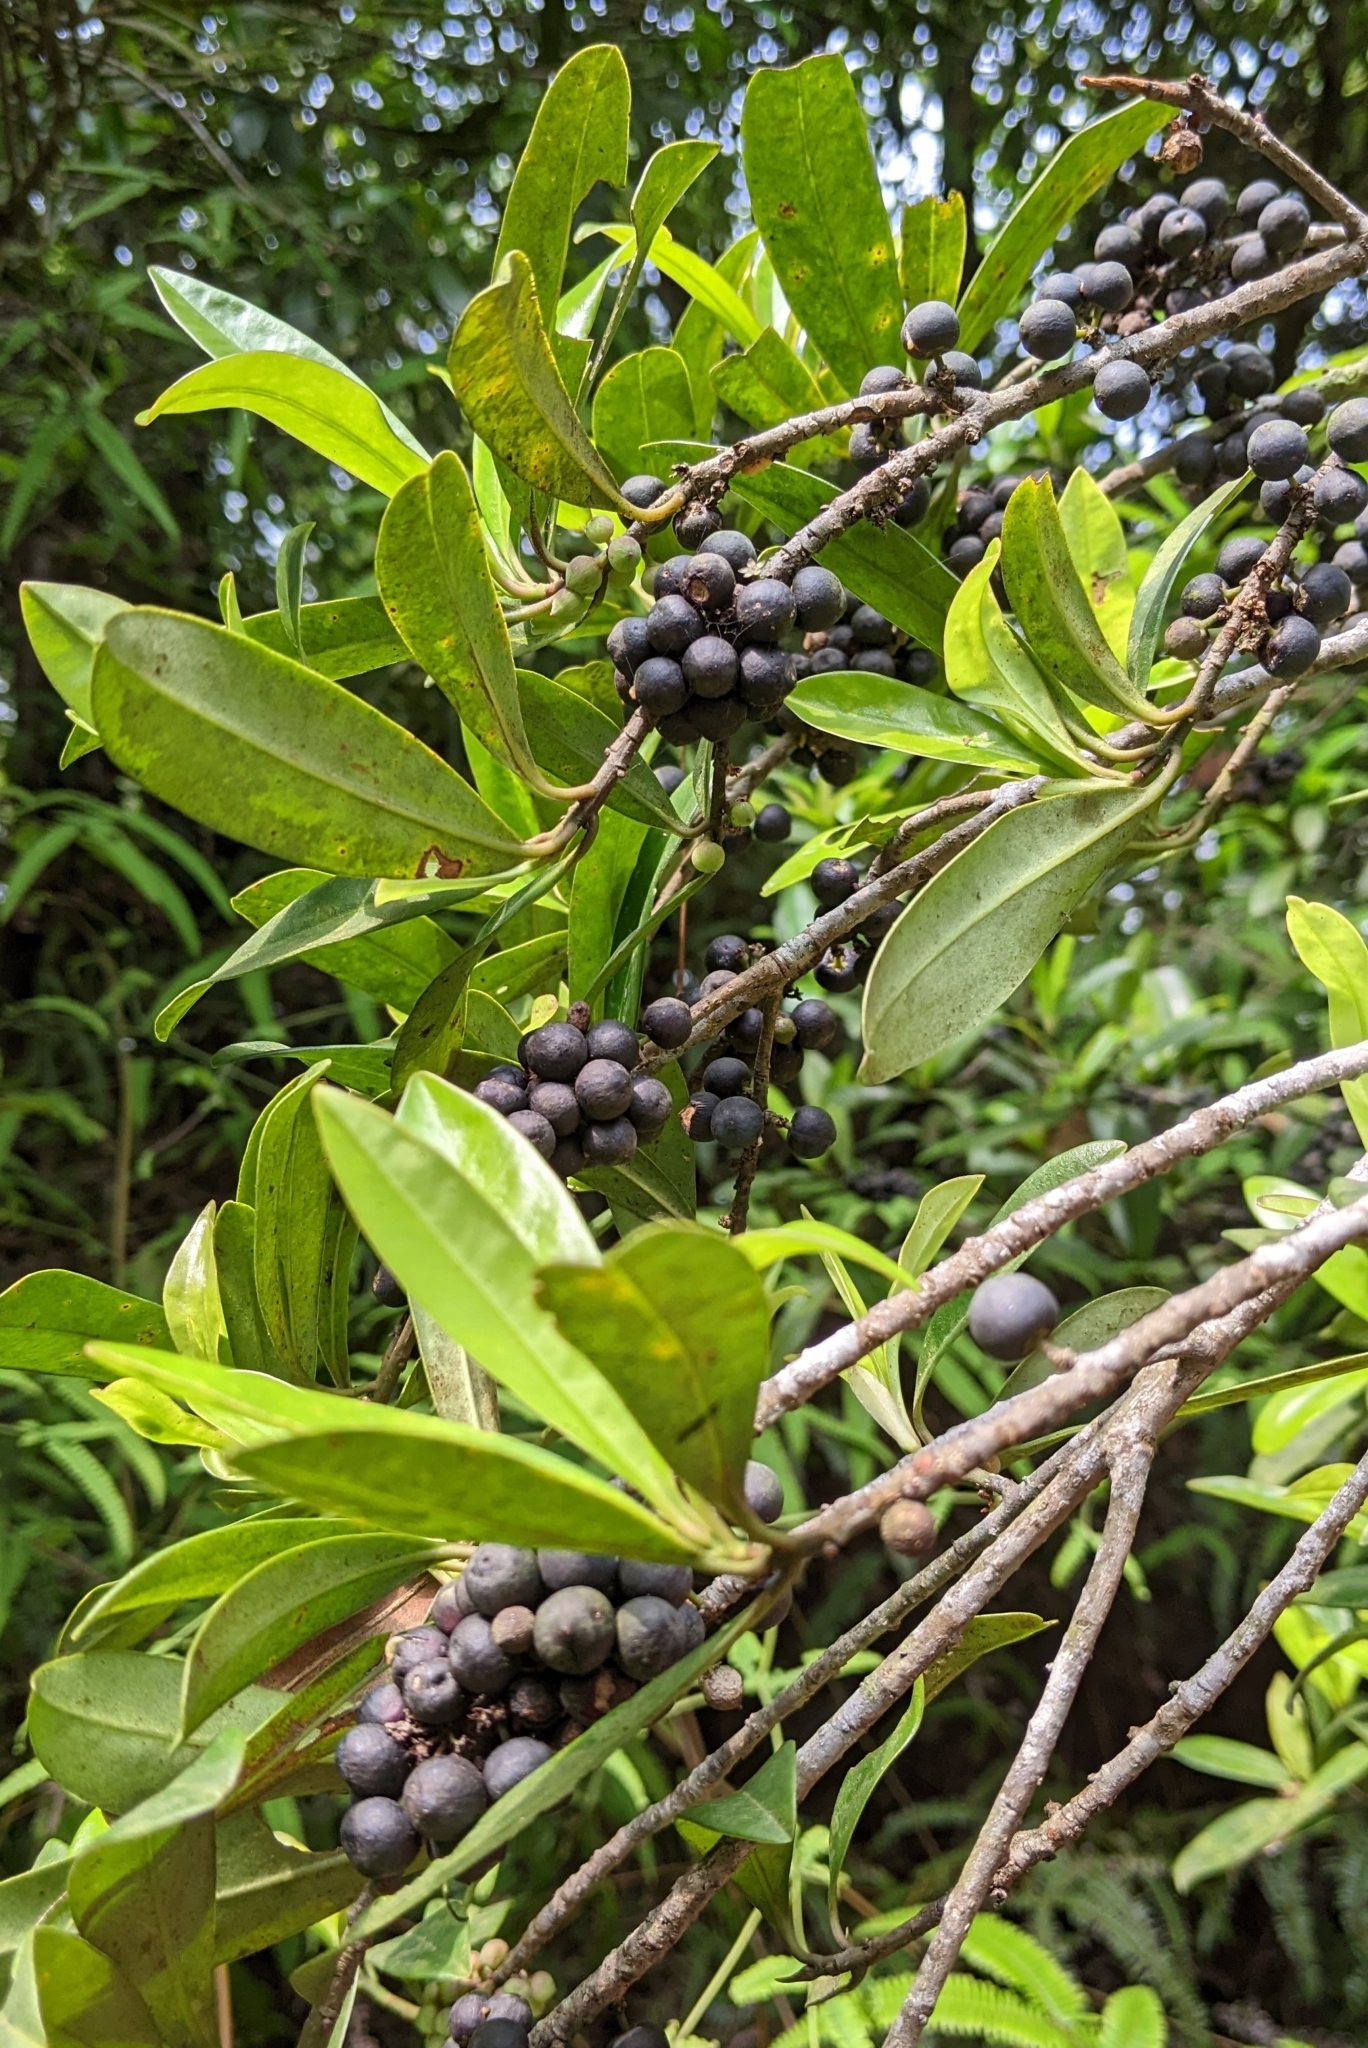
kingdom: Plantae
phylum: Tracheophyta
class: Magnoliopsida
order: Ericales
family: Primulaceae
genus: Myrsine
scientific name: Myrsine seguinii
